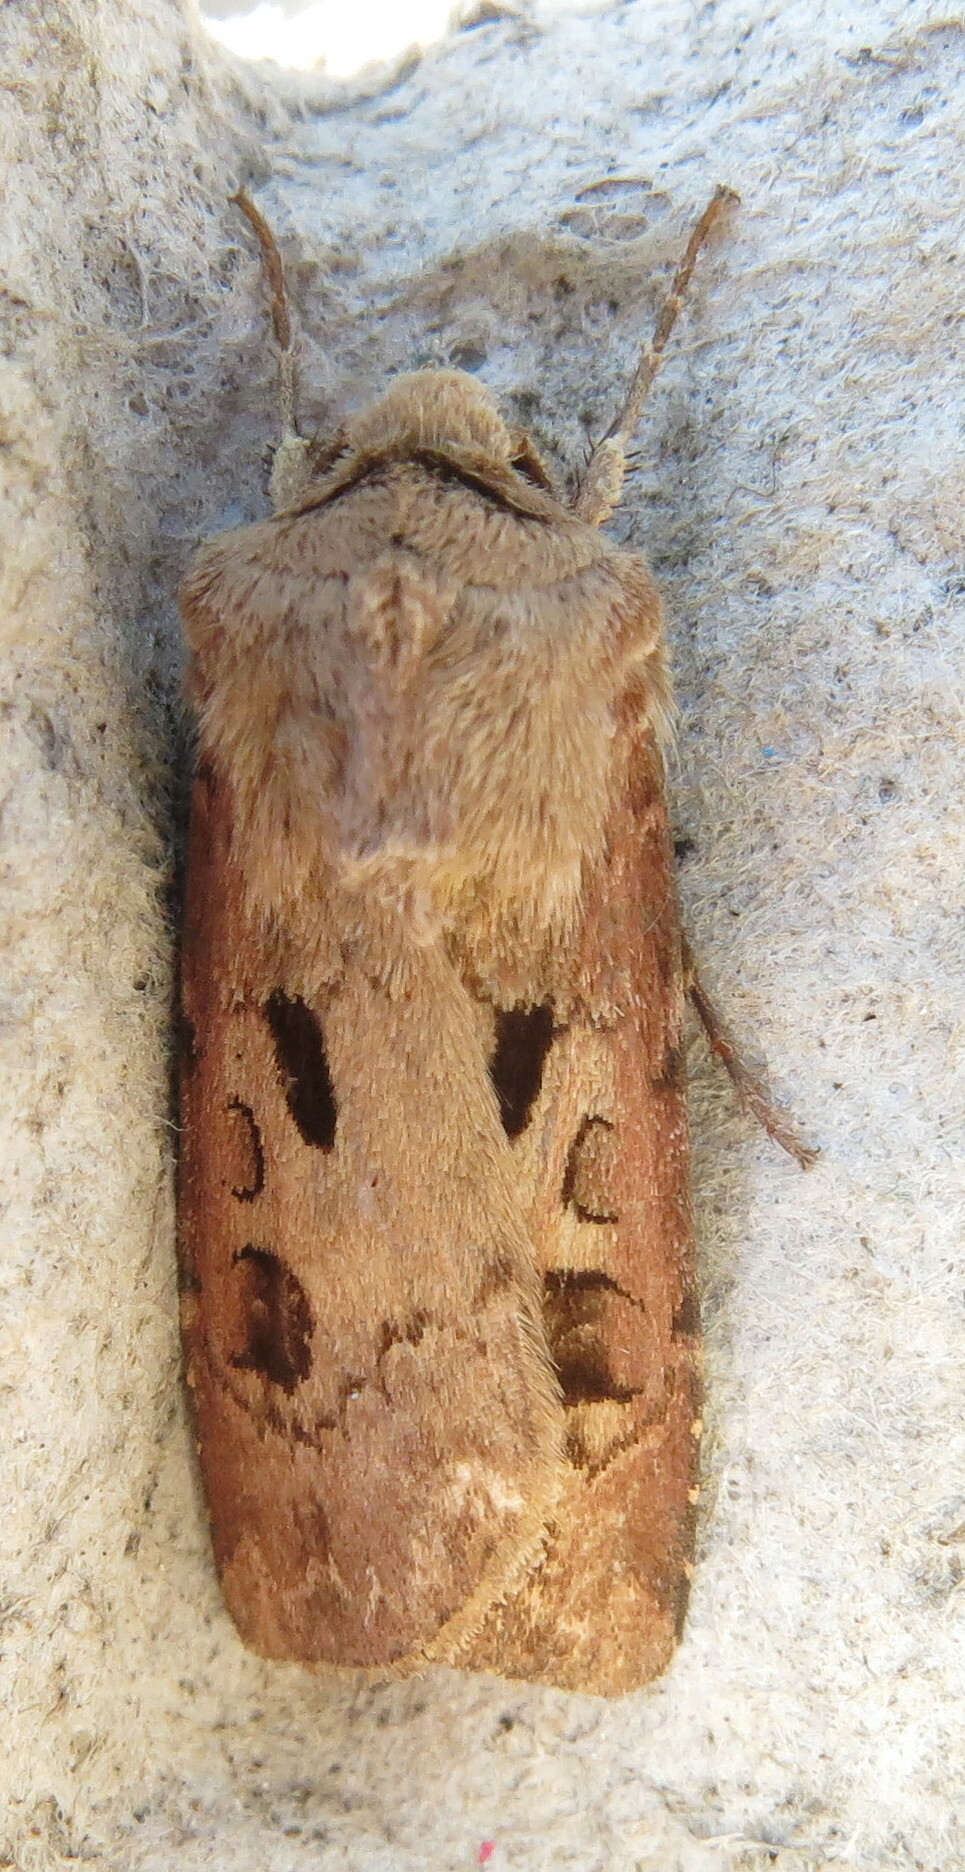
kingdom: Animalia
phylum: Arthropoda
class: Insecta
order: Lepidoptera
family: Noctuidae
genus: Agrotis
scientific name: Agrotis exclamationis
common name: Heart and dart
